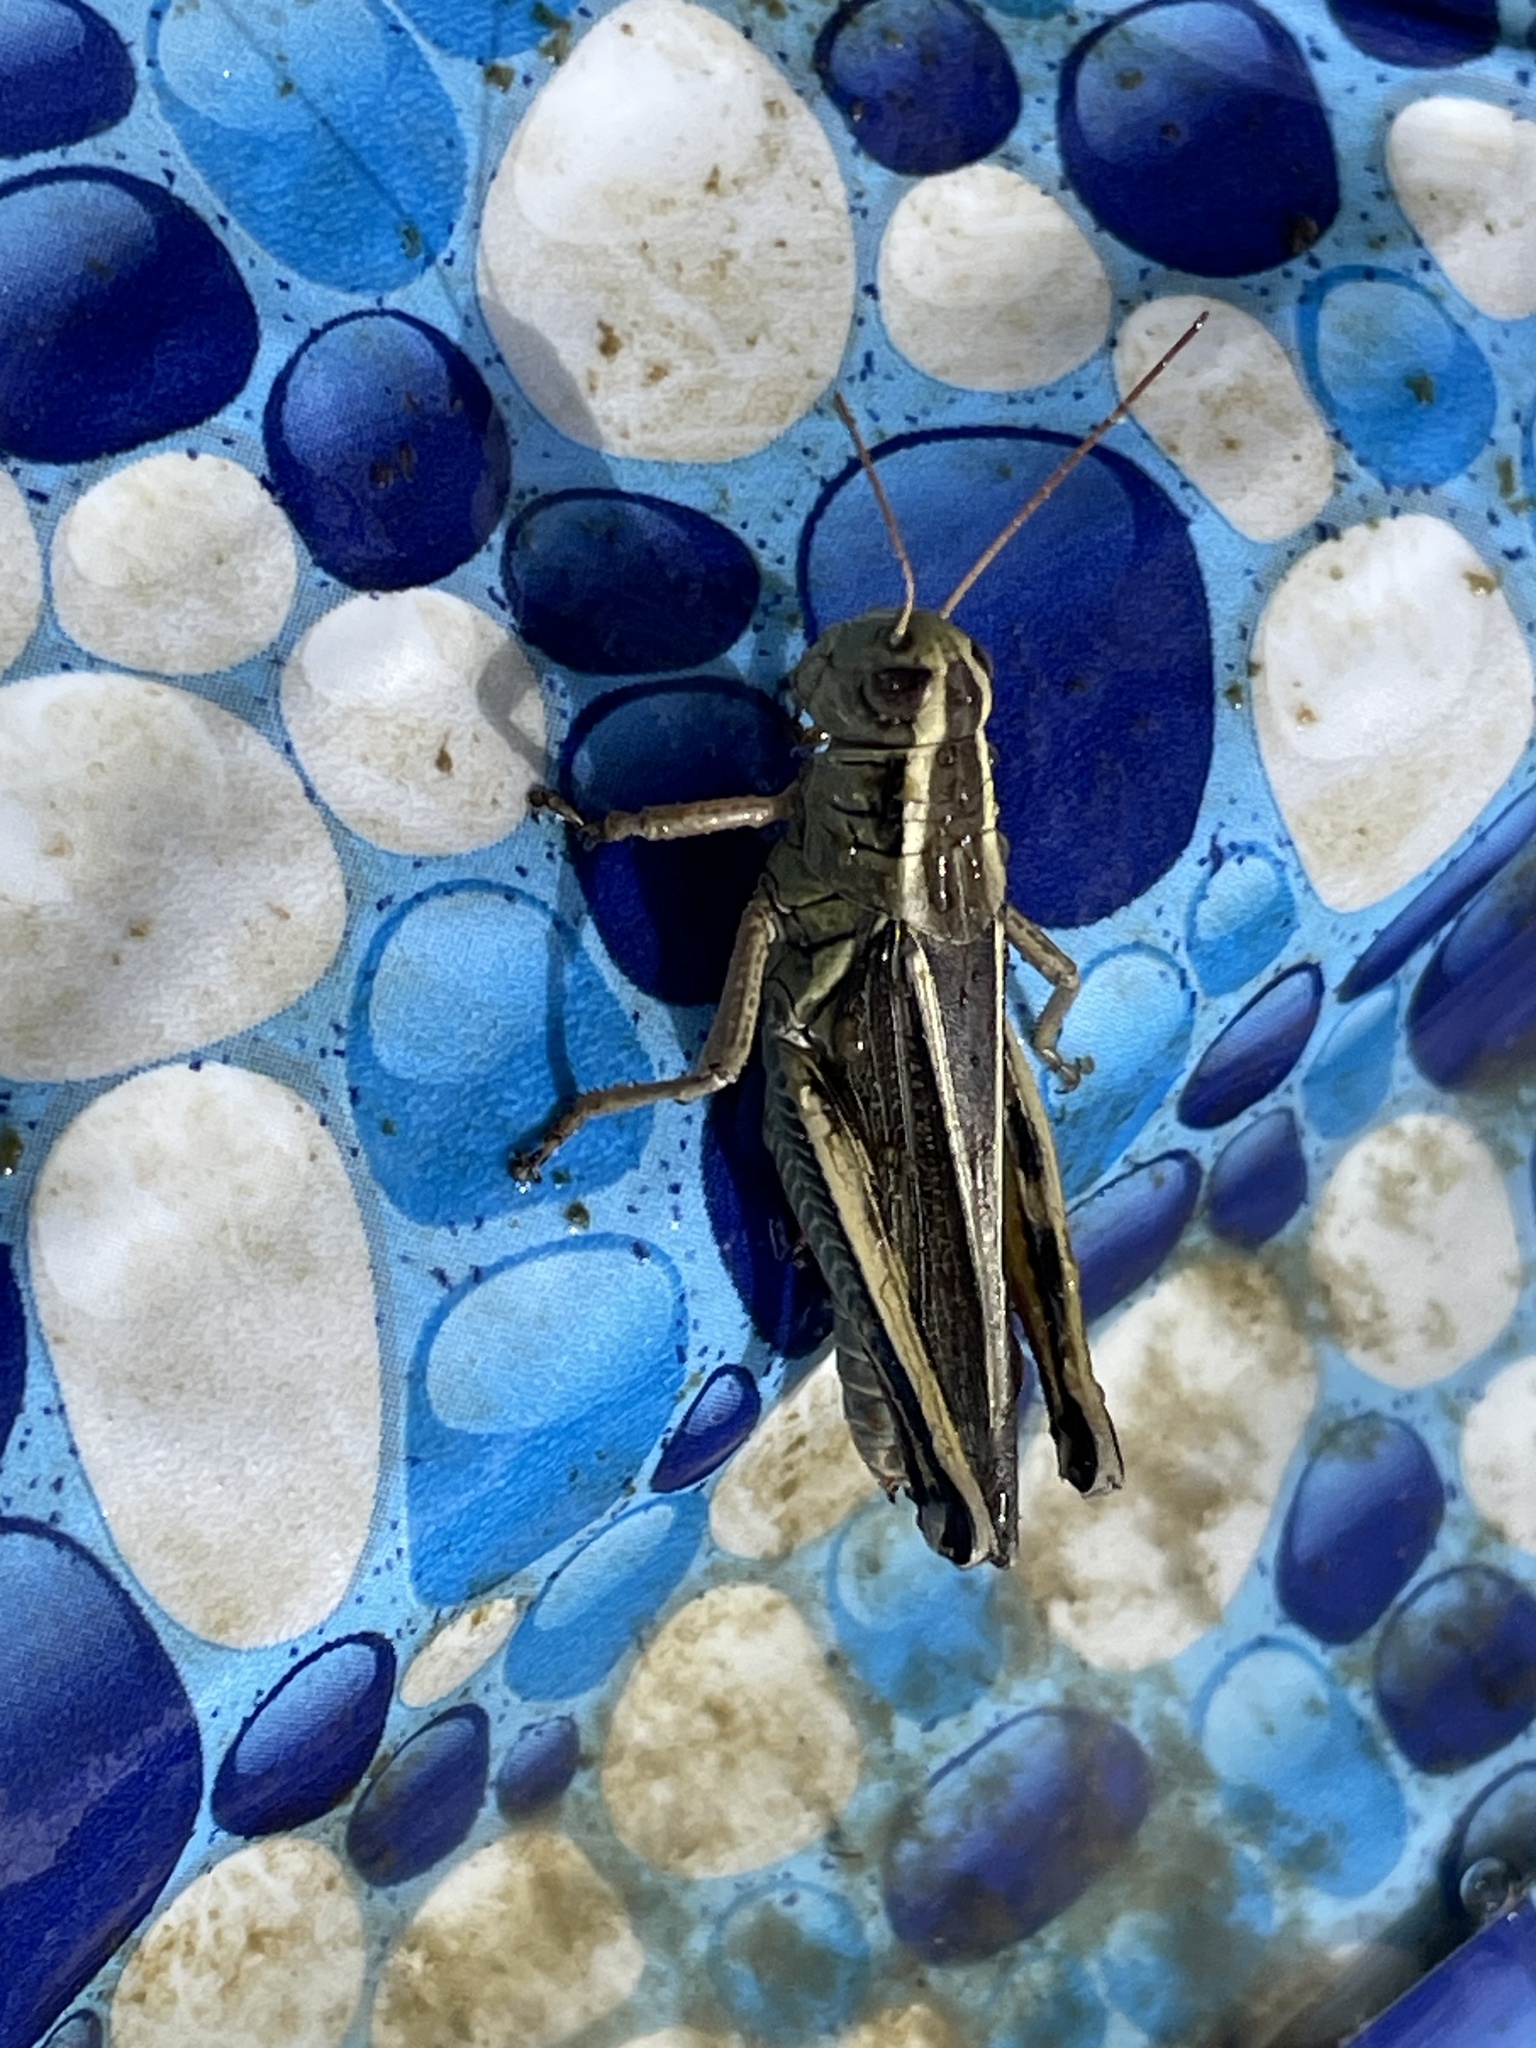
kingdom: Animalia
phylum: Arthropoda
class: Insecta
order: Orthoptera
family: Acrididae
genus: Melanoplus
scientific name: Melanoplus bivittatus
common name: Two-striped grasshopper
